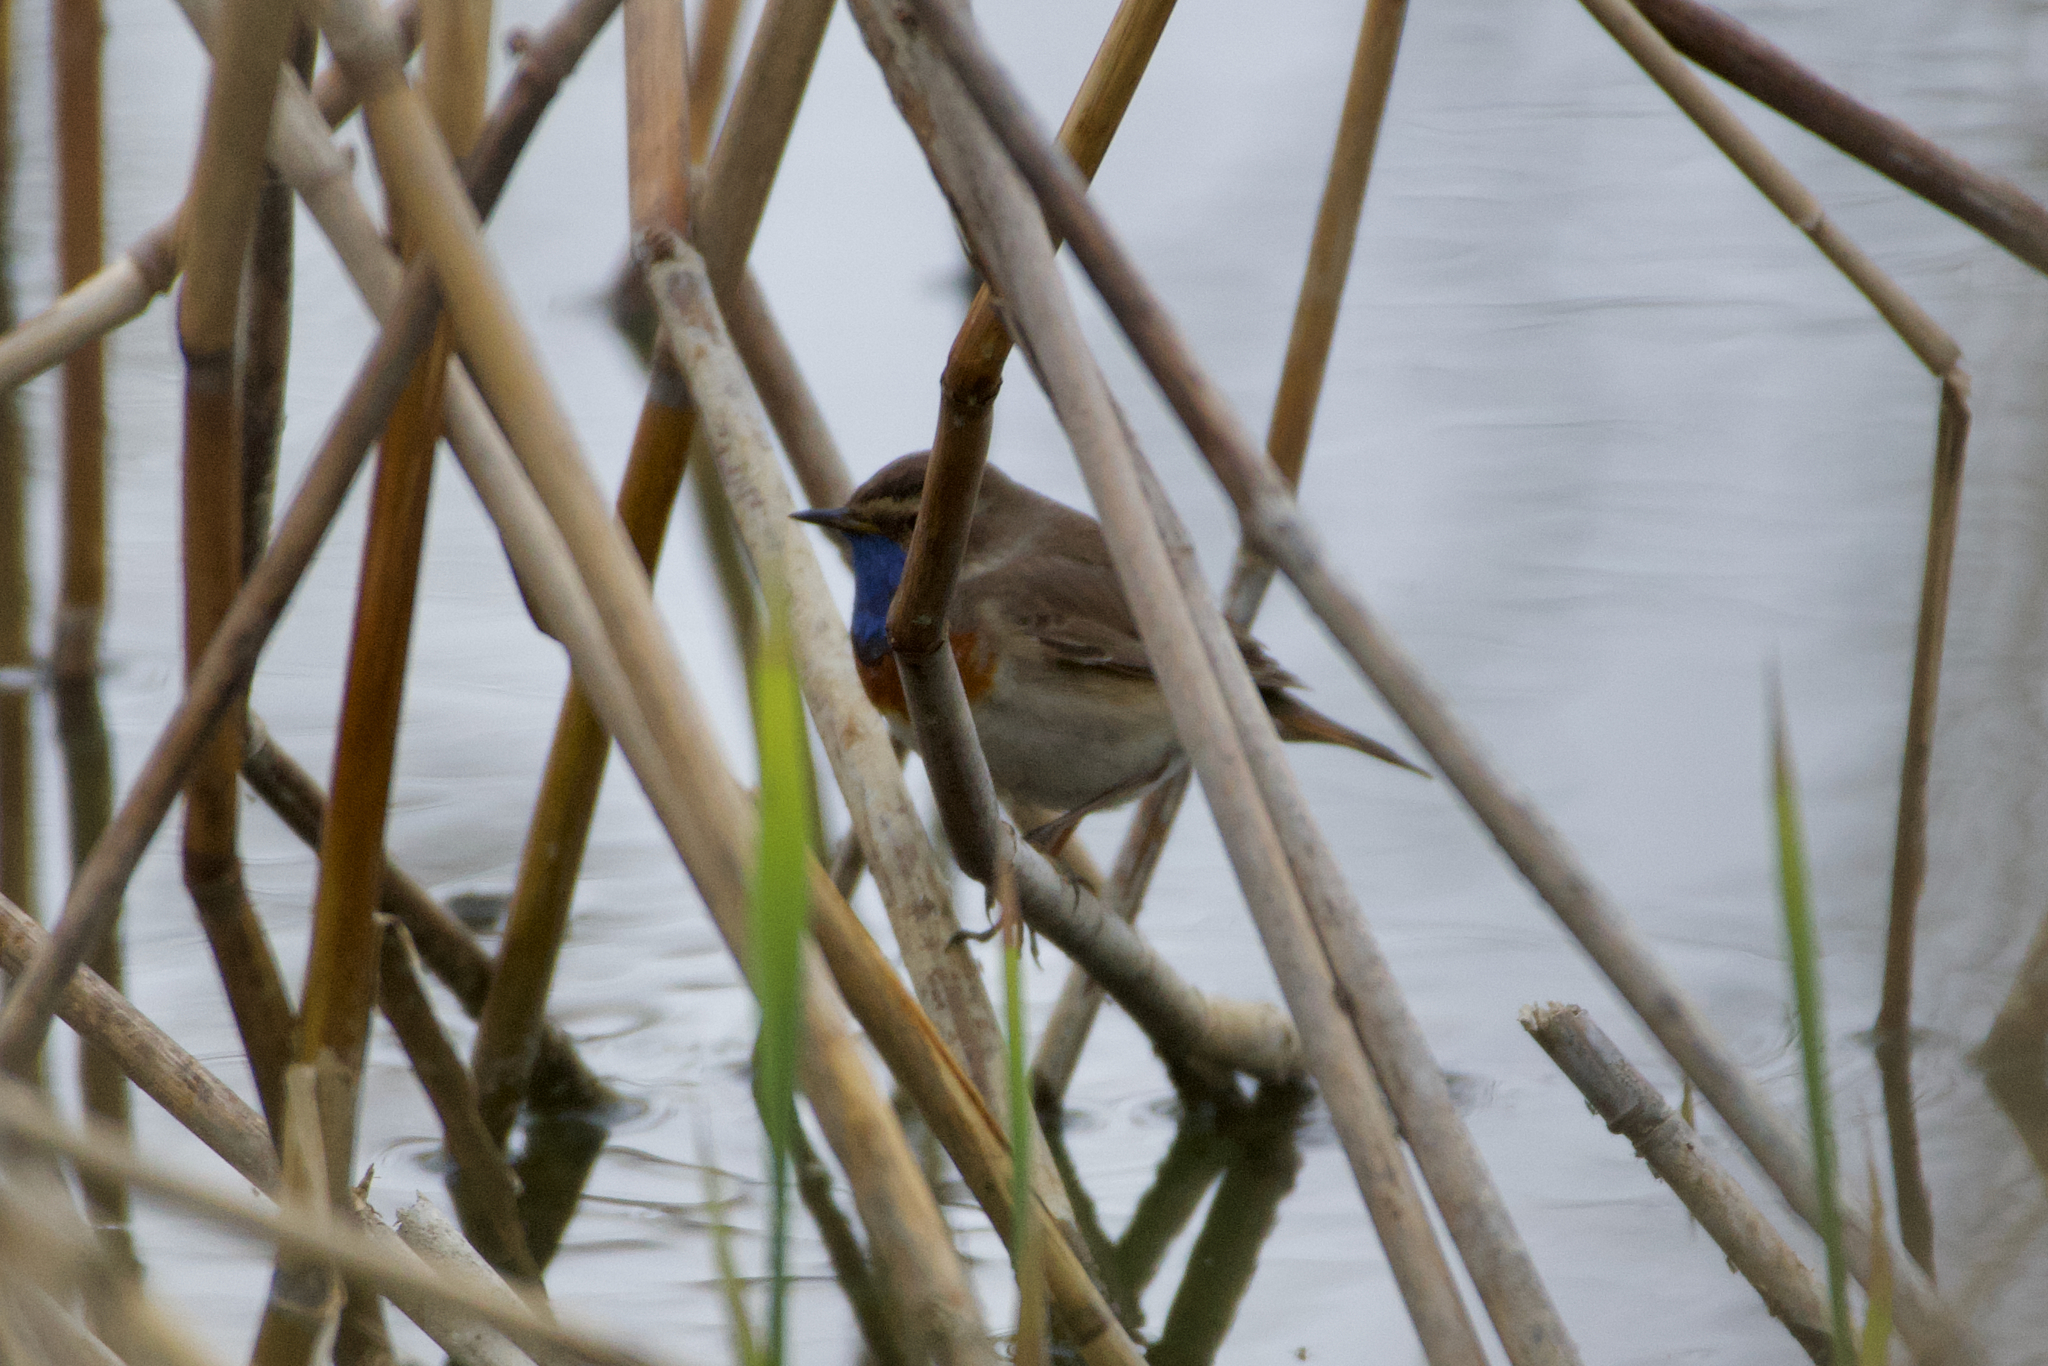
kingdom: Animalia
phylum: Chordata
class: Aves
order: Passeriformes
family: Muscicapidae
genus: Luscinia
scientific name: Luscinia svecica
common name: Bluethroat
